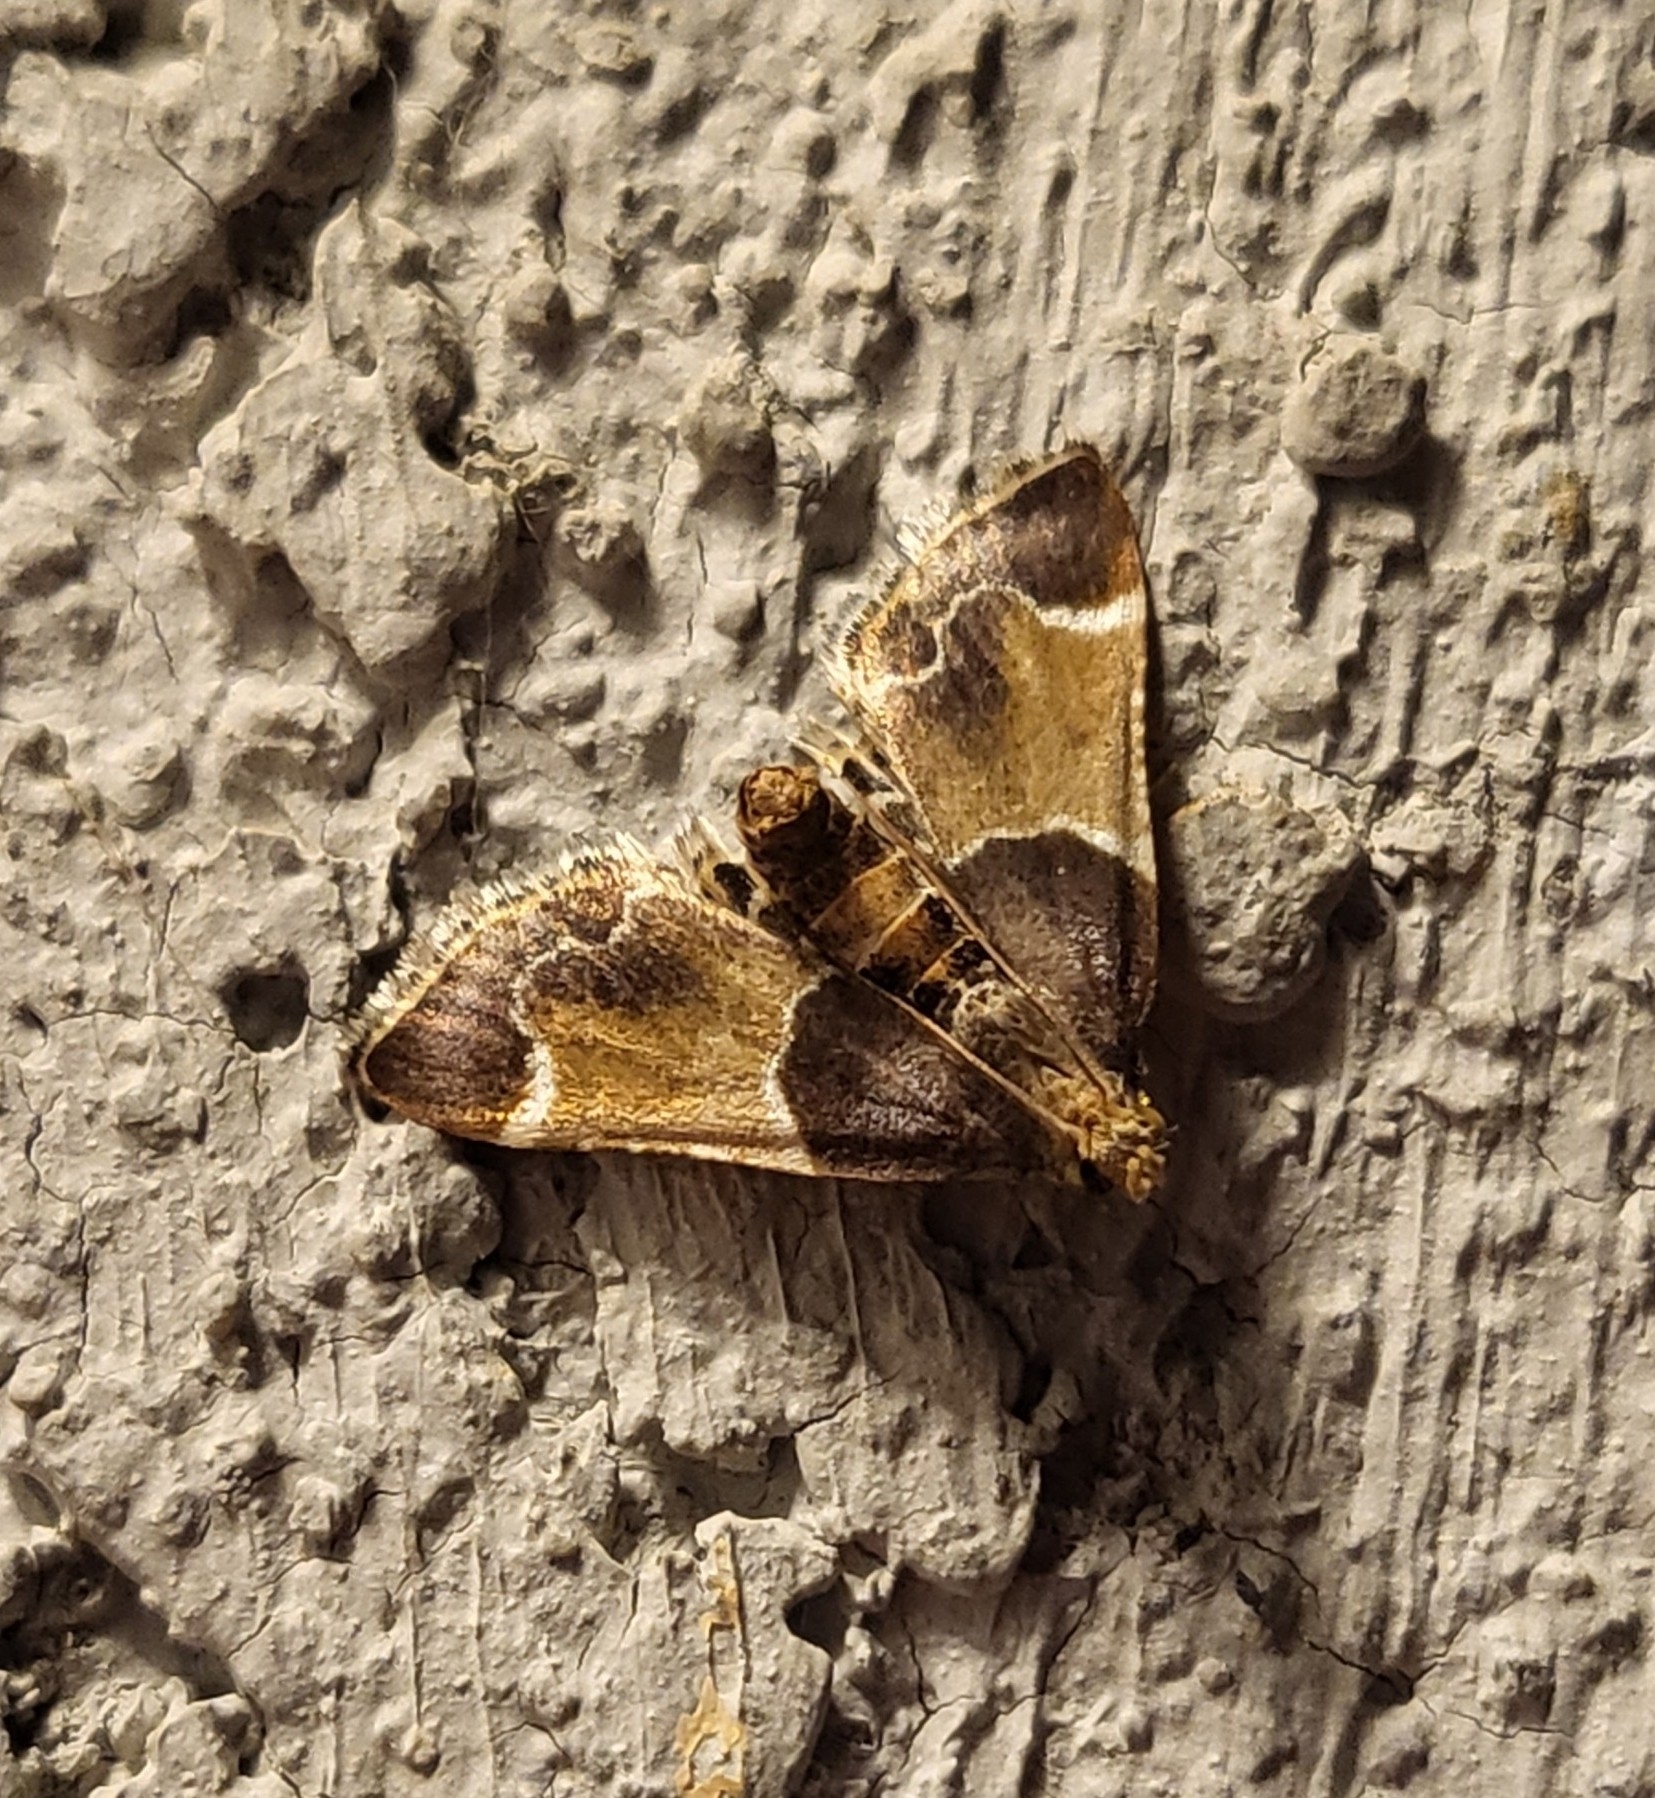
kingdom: Animalia
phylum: Arthropoda
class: Insecta
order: Lepidoptera
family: Pyralidae
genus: Pyralis
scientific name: Pyralis farinalis
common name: Meal moth
